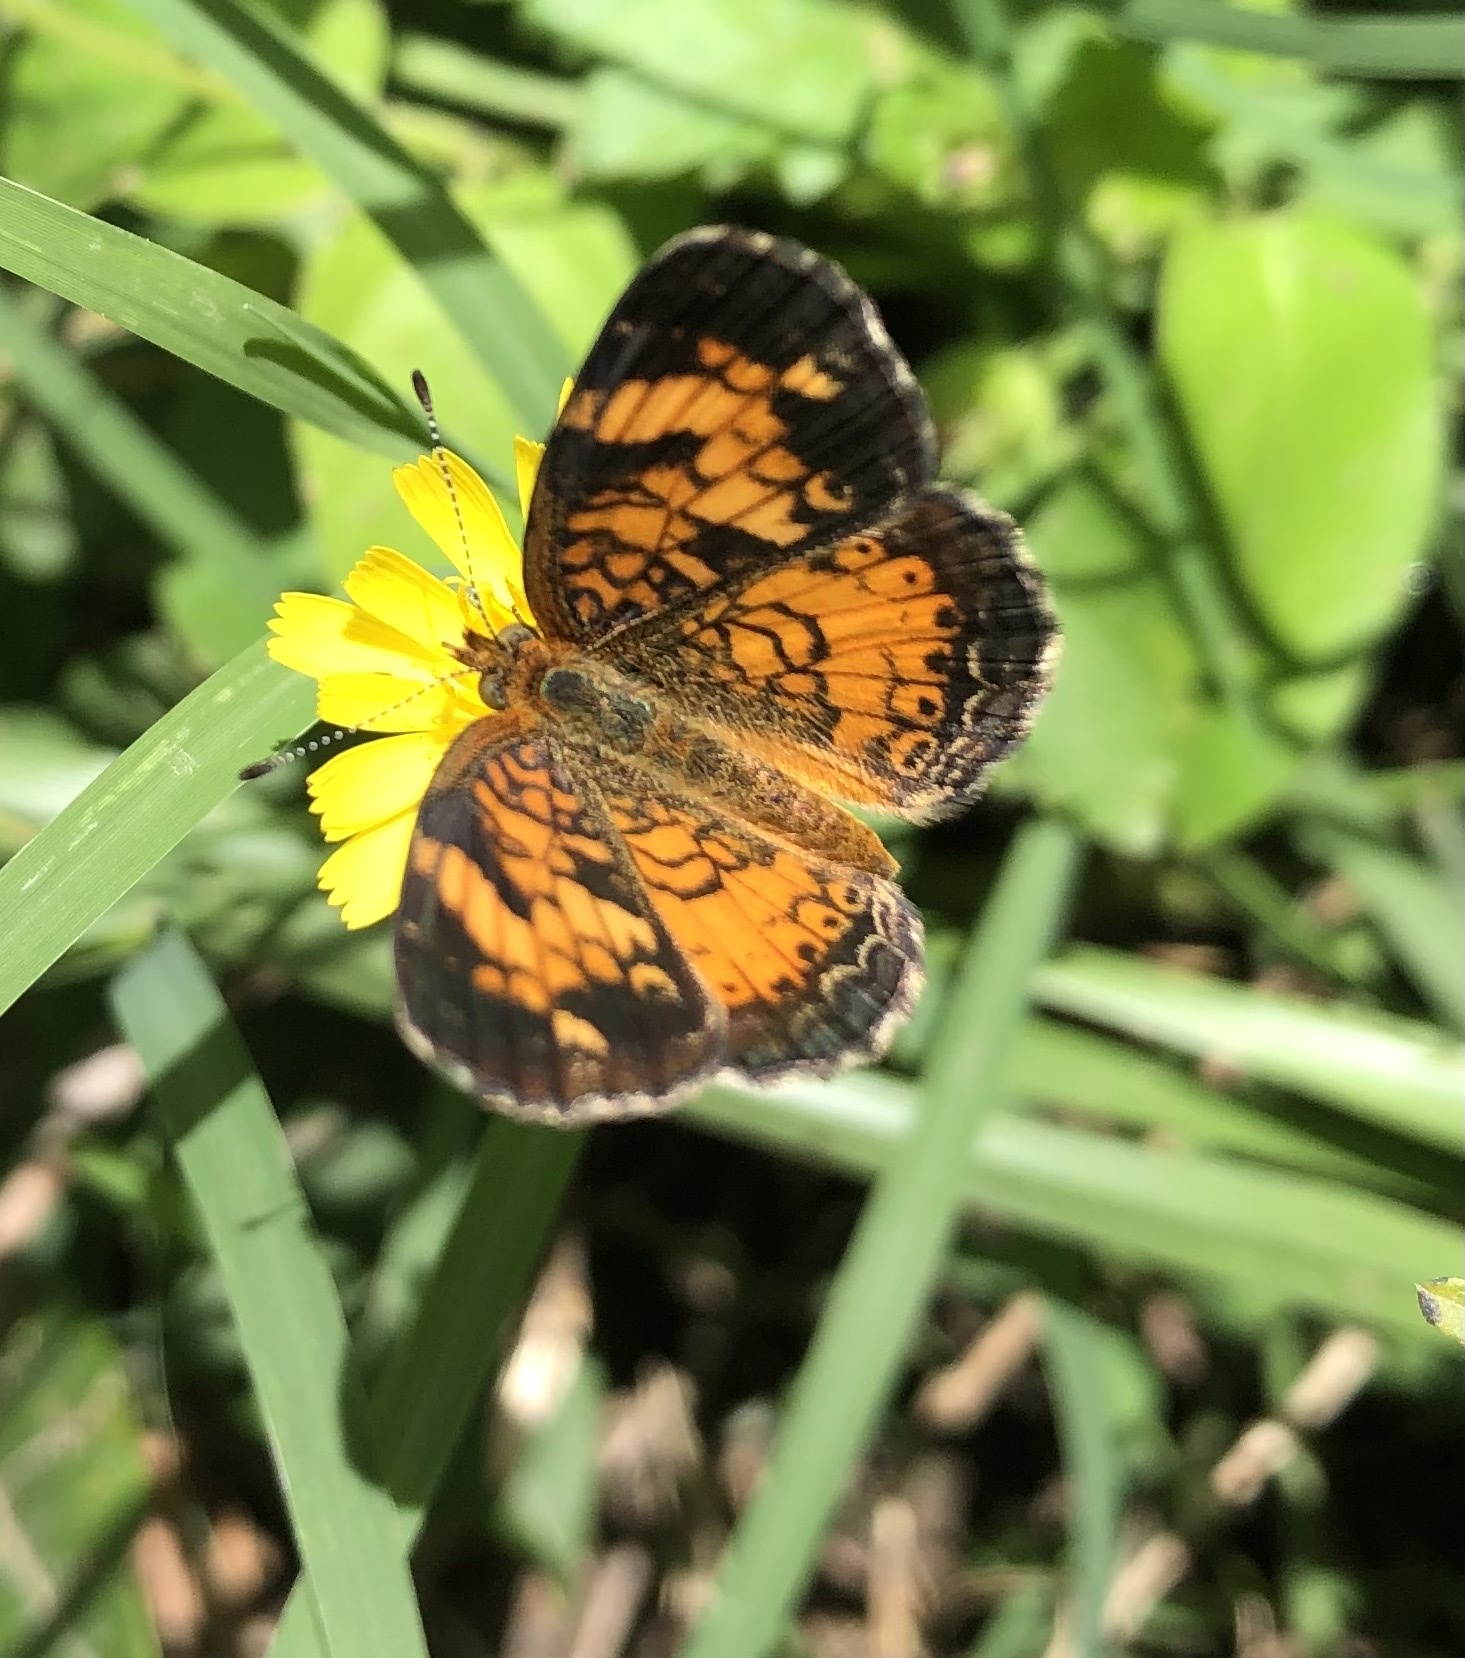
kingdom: Animalia
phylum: Arthropoda
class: Insecta
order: Lepidoptera
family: Nymphalidae
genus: Phyciodes
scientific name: Phyciodes tharos
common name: Pearl crescent
